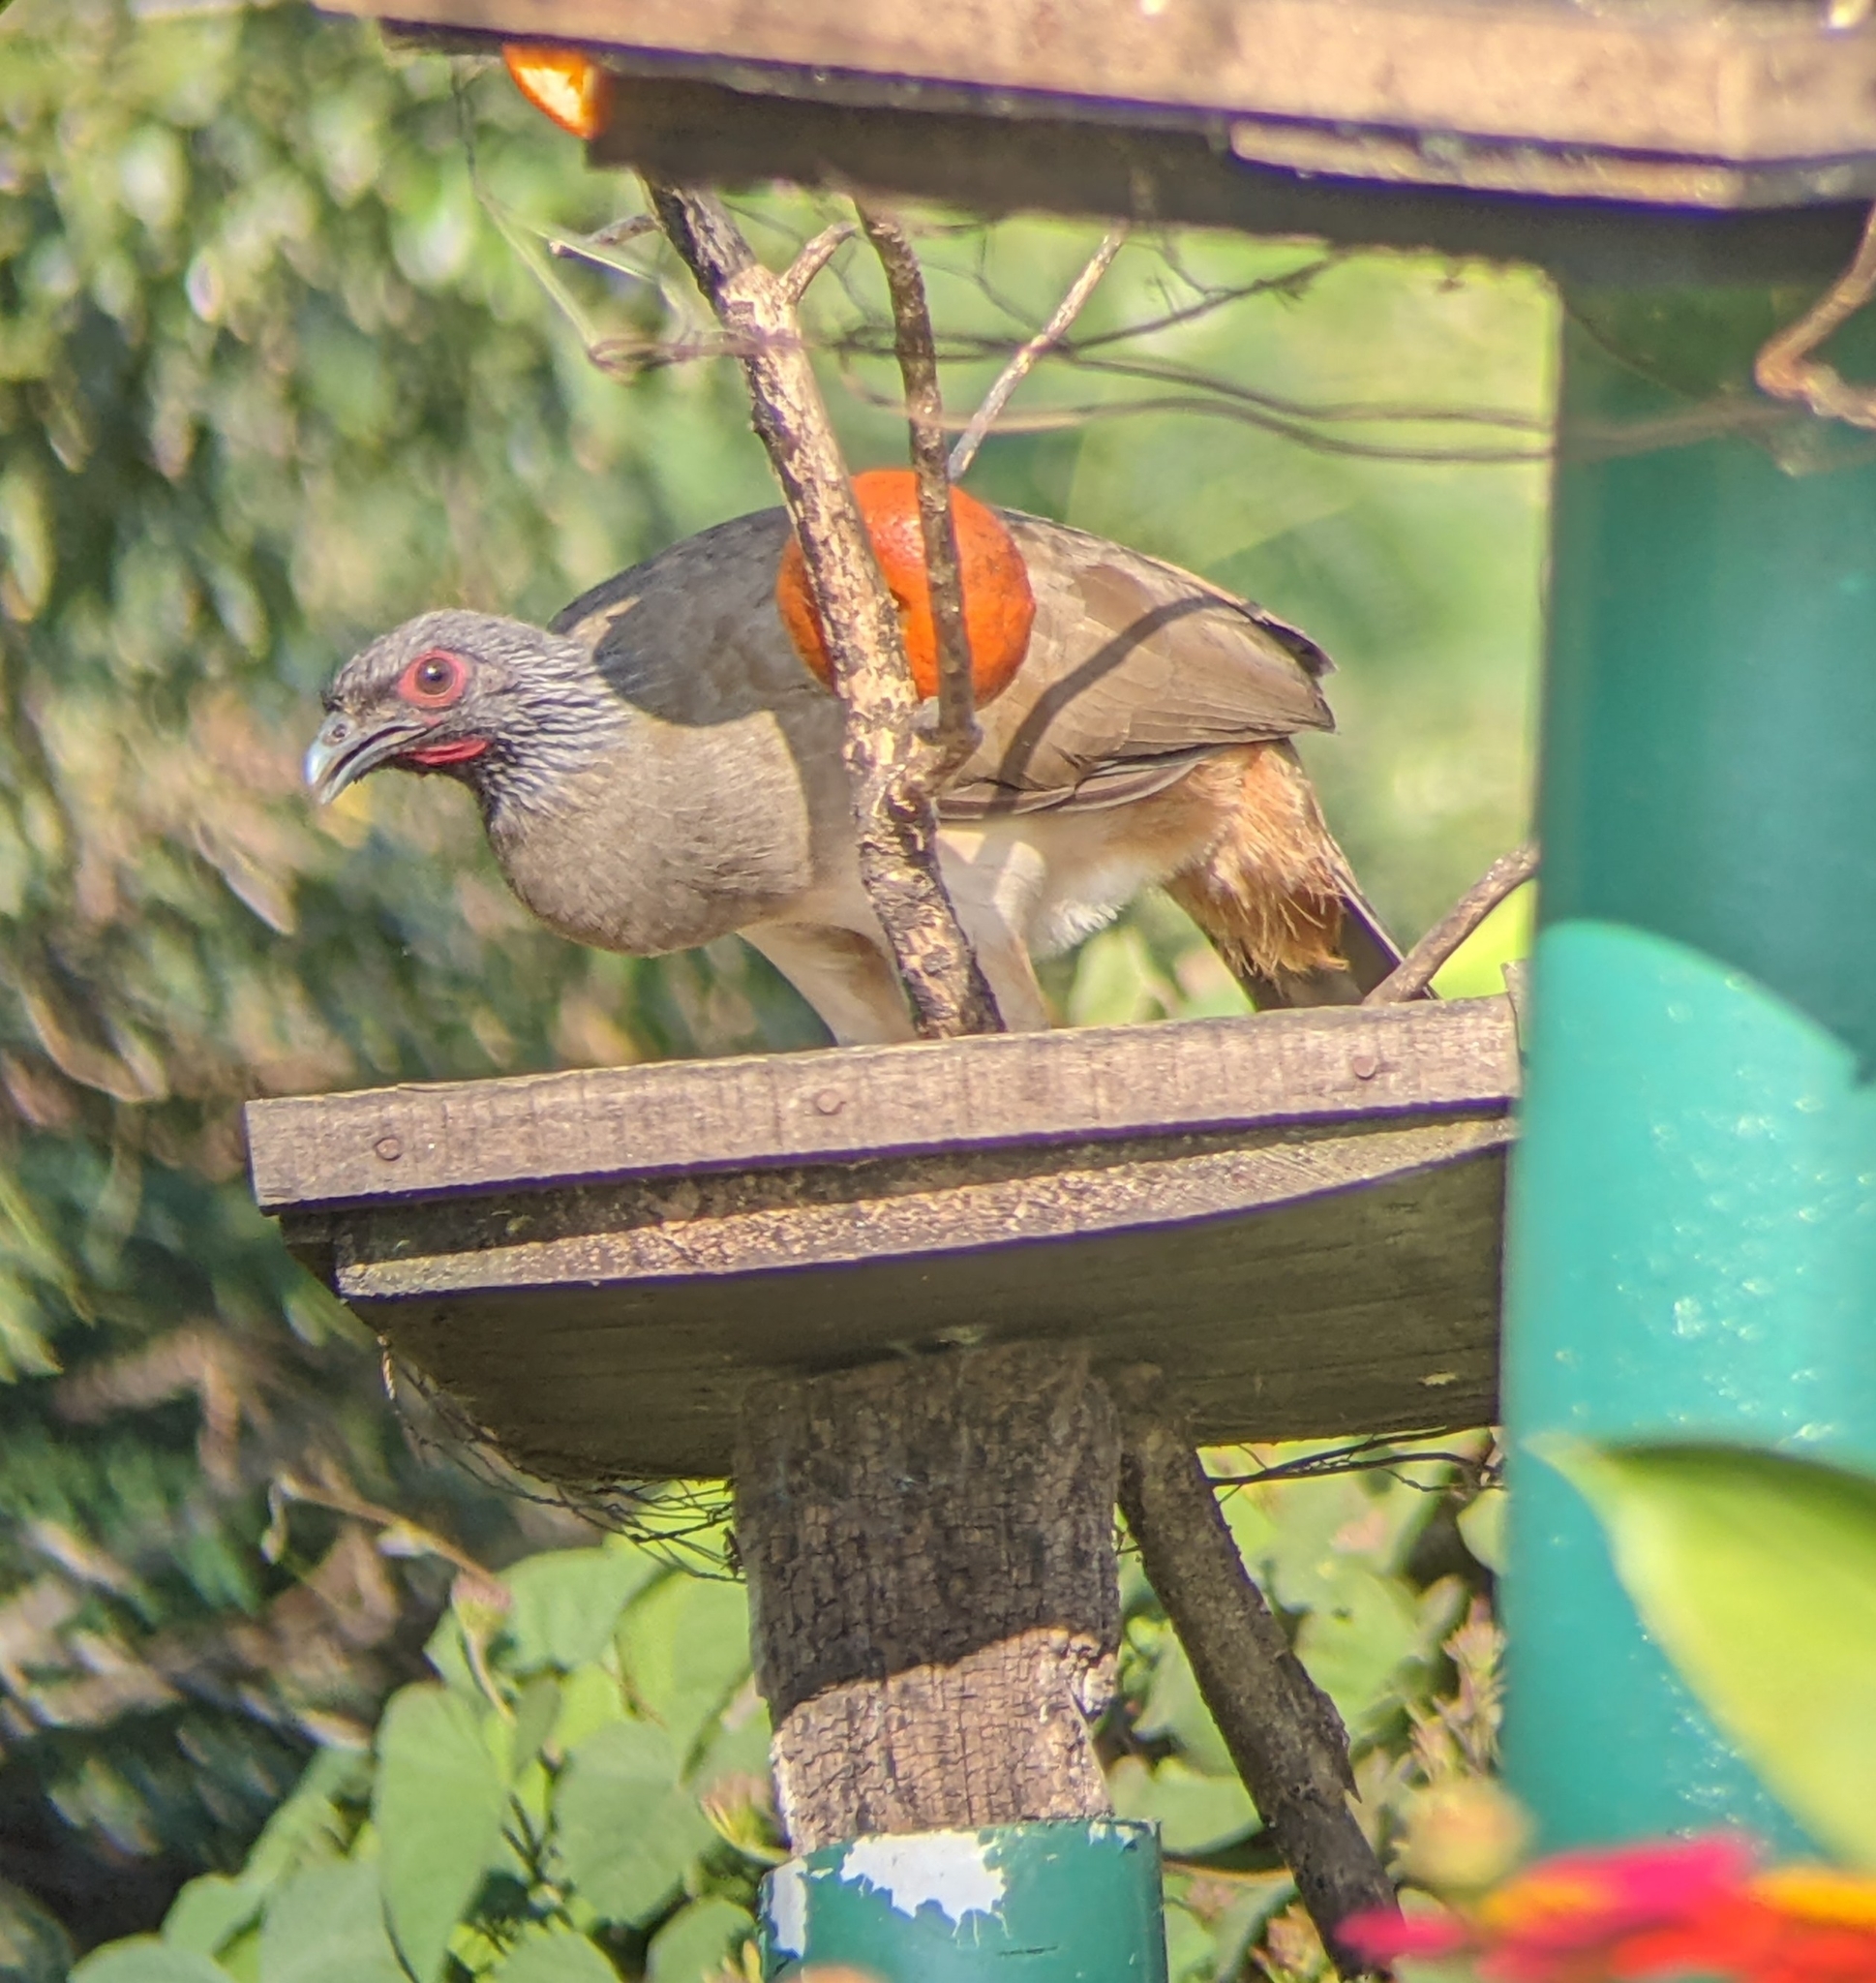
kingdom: Animalia
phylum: Chordata
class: Aves
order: Galliformes
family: Cracidae
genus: Ortalis
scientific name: Ortalis poliocephala
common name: West mexican chachalaca
